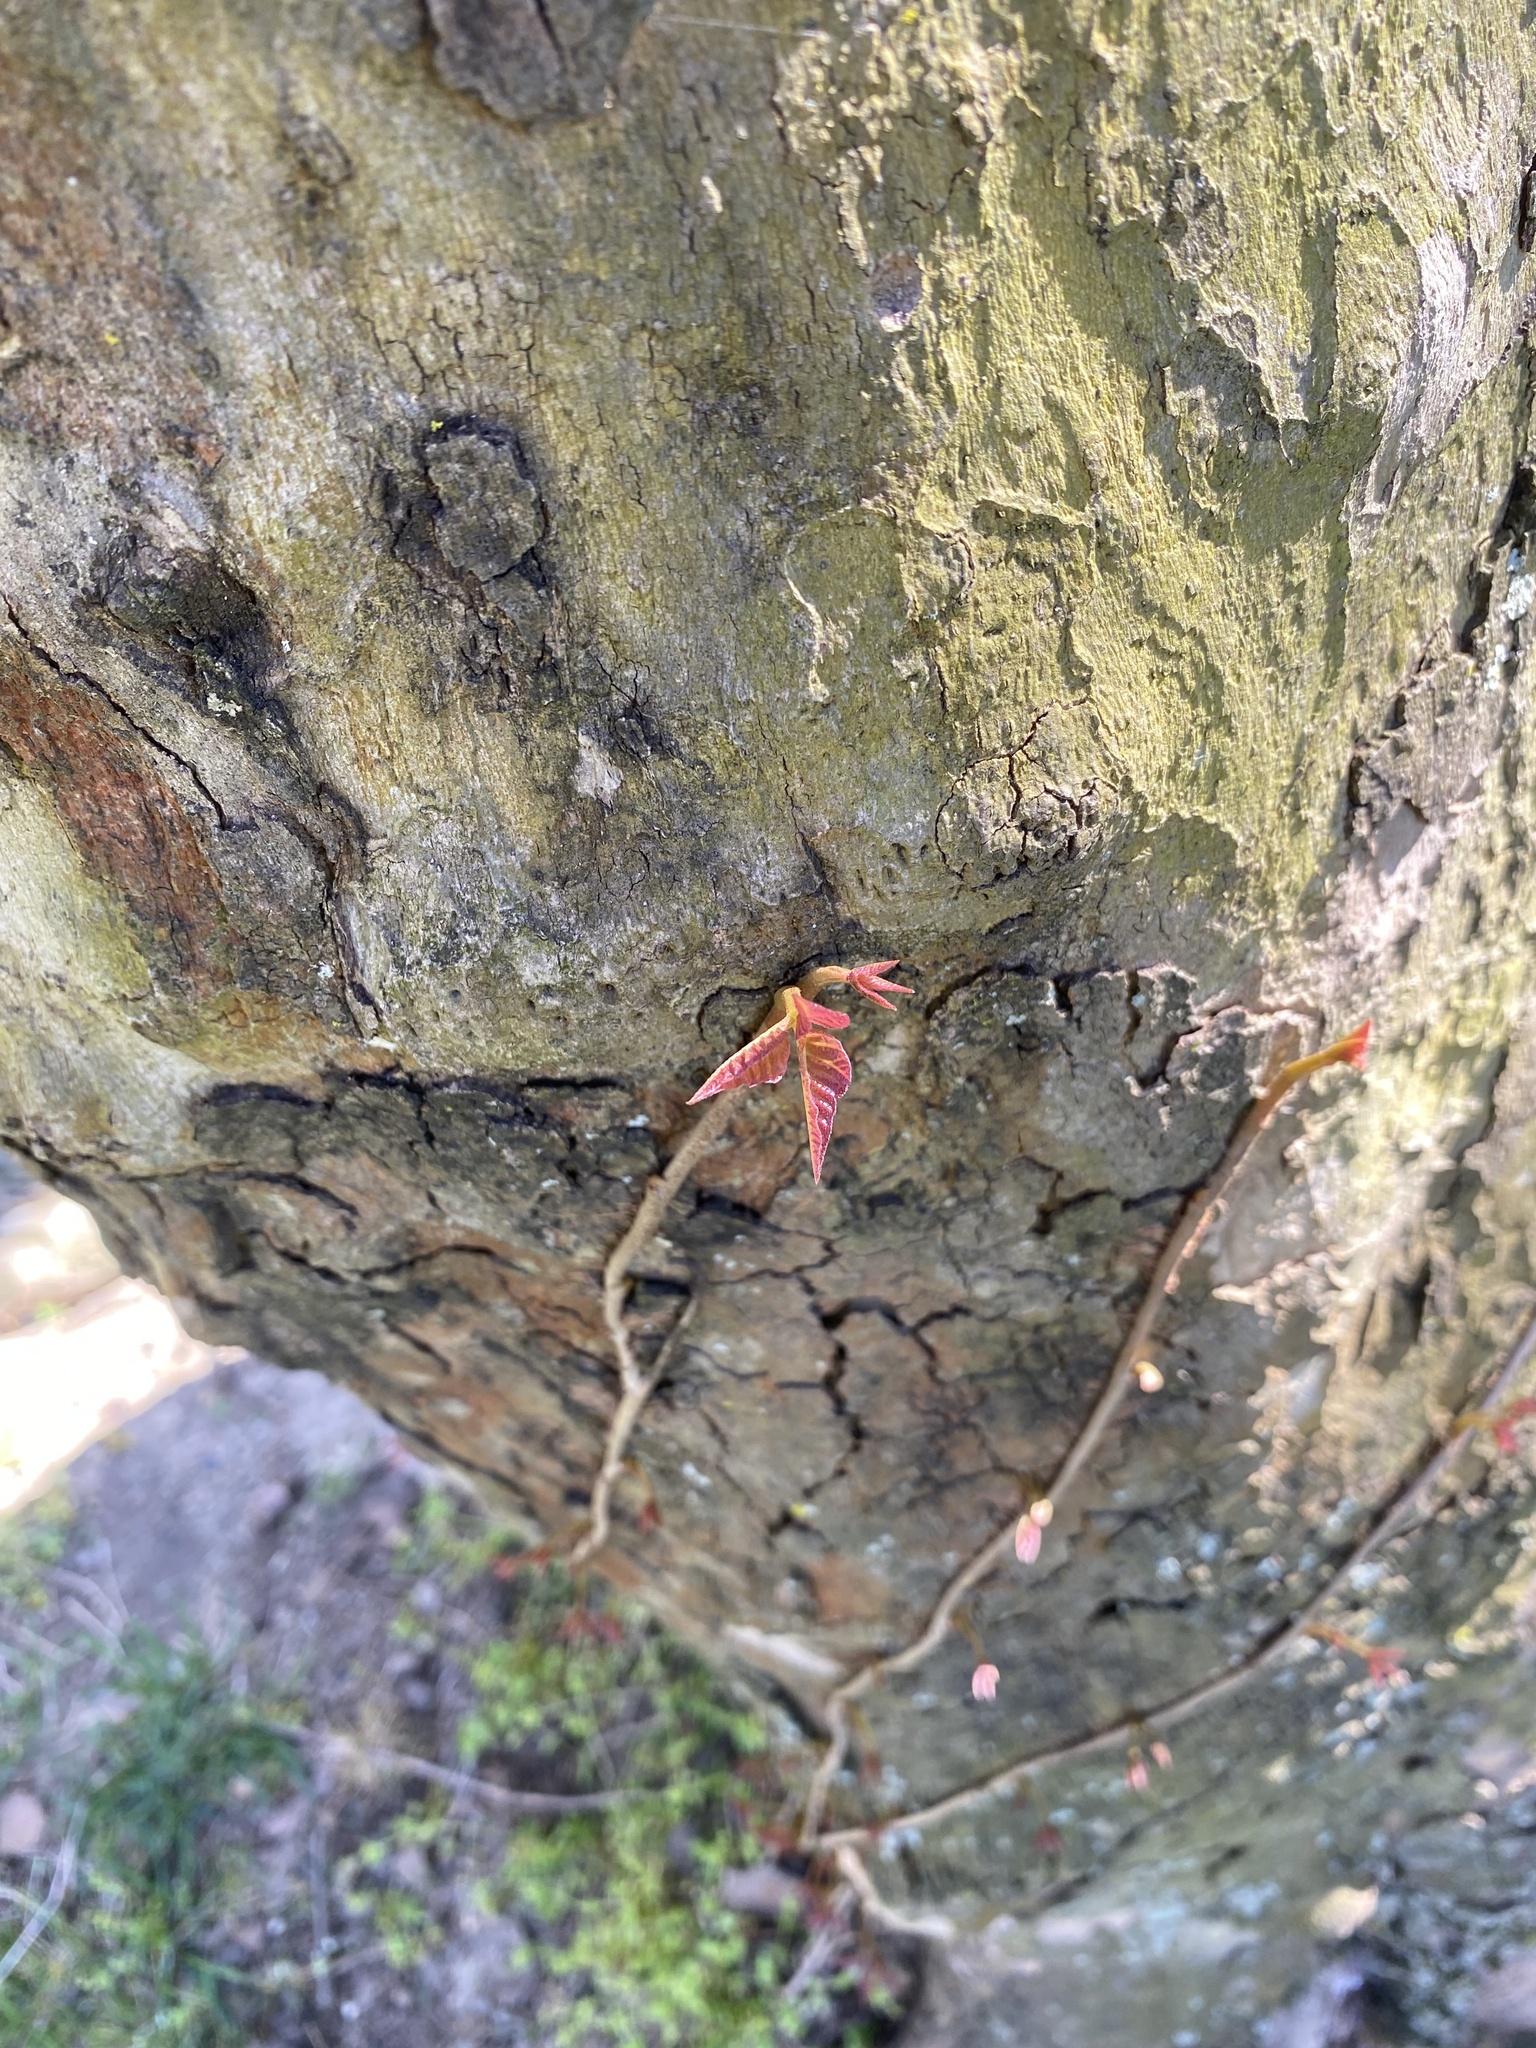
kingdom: Plantae
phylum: Tracheophyta
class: Magnoliopsida
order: Sapindales
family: Anacardiaceae
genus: Toxicodendron
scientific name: Toxicodendron radicans
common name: Poison ivy
